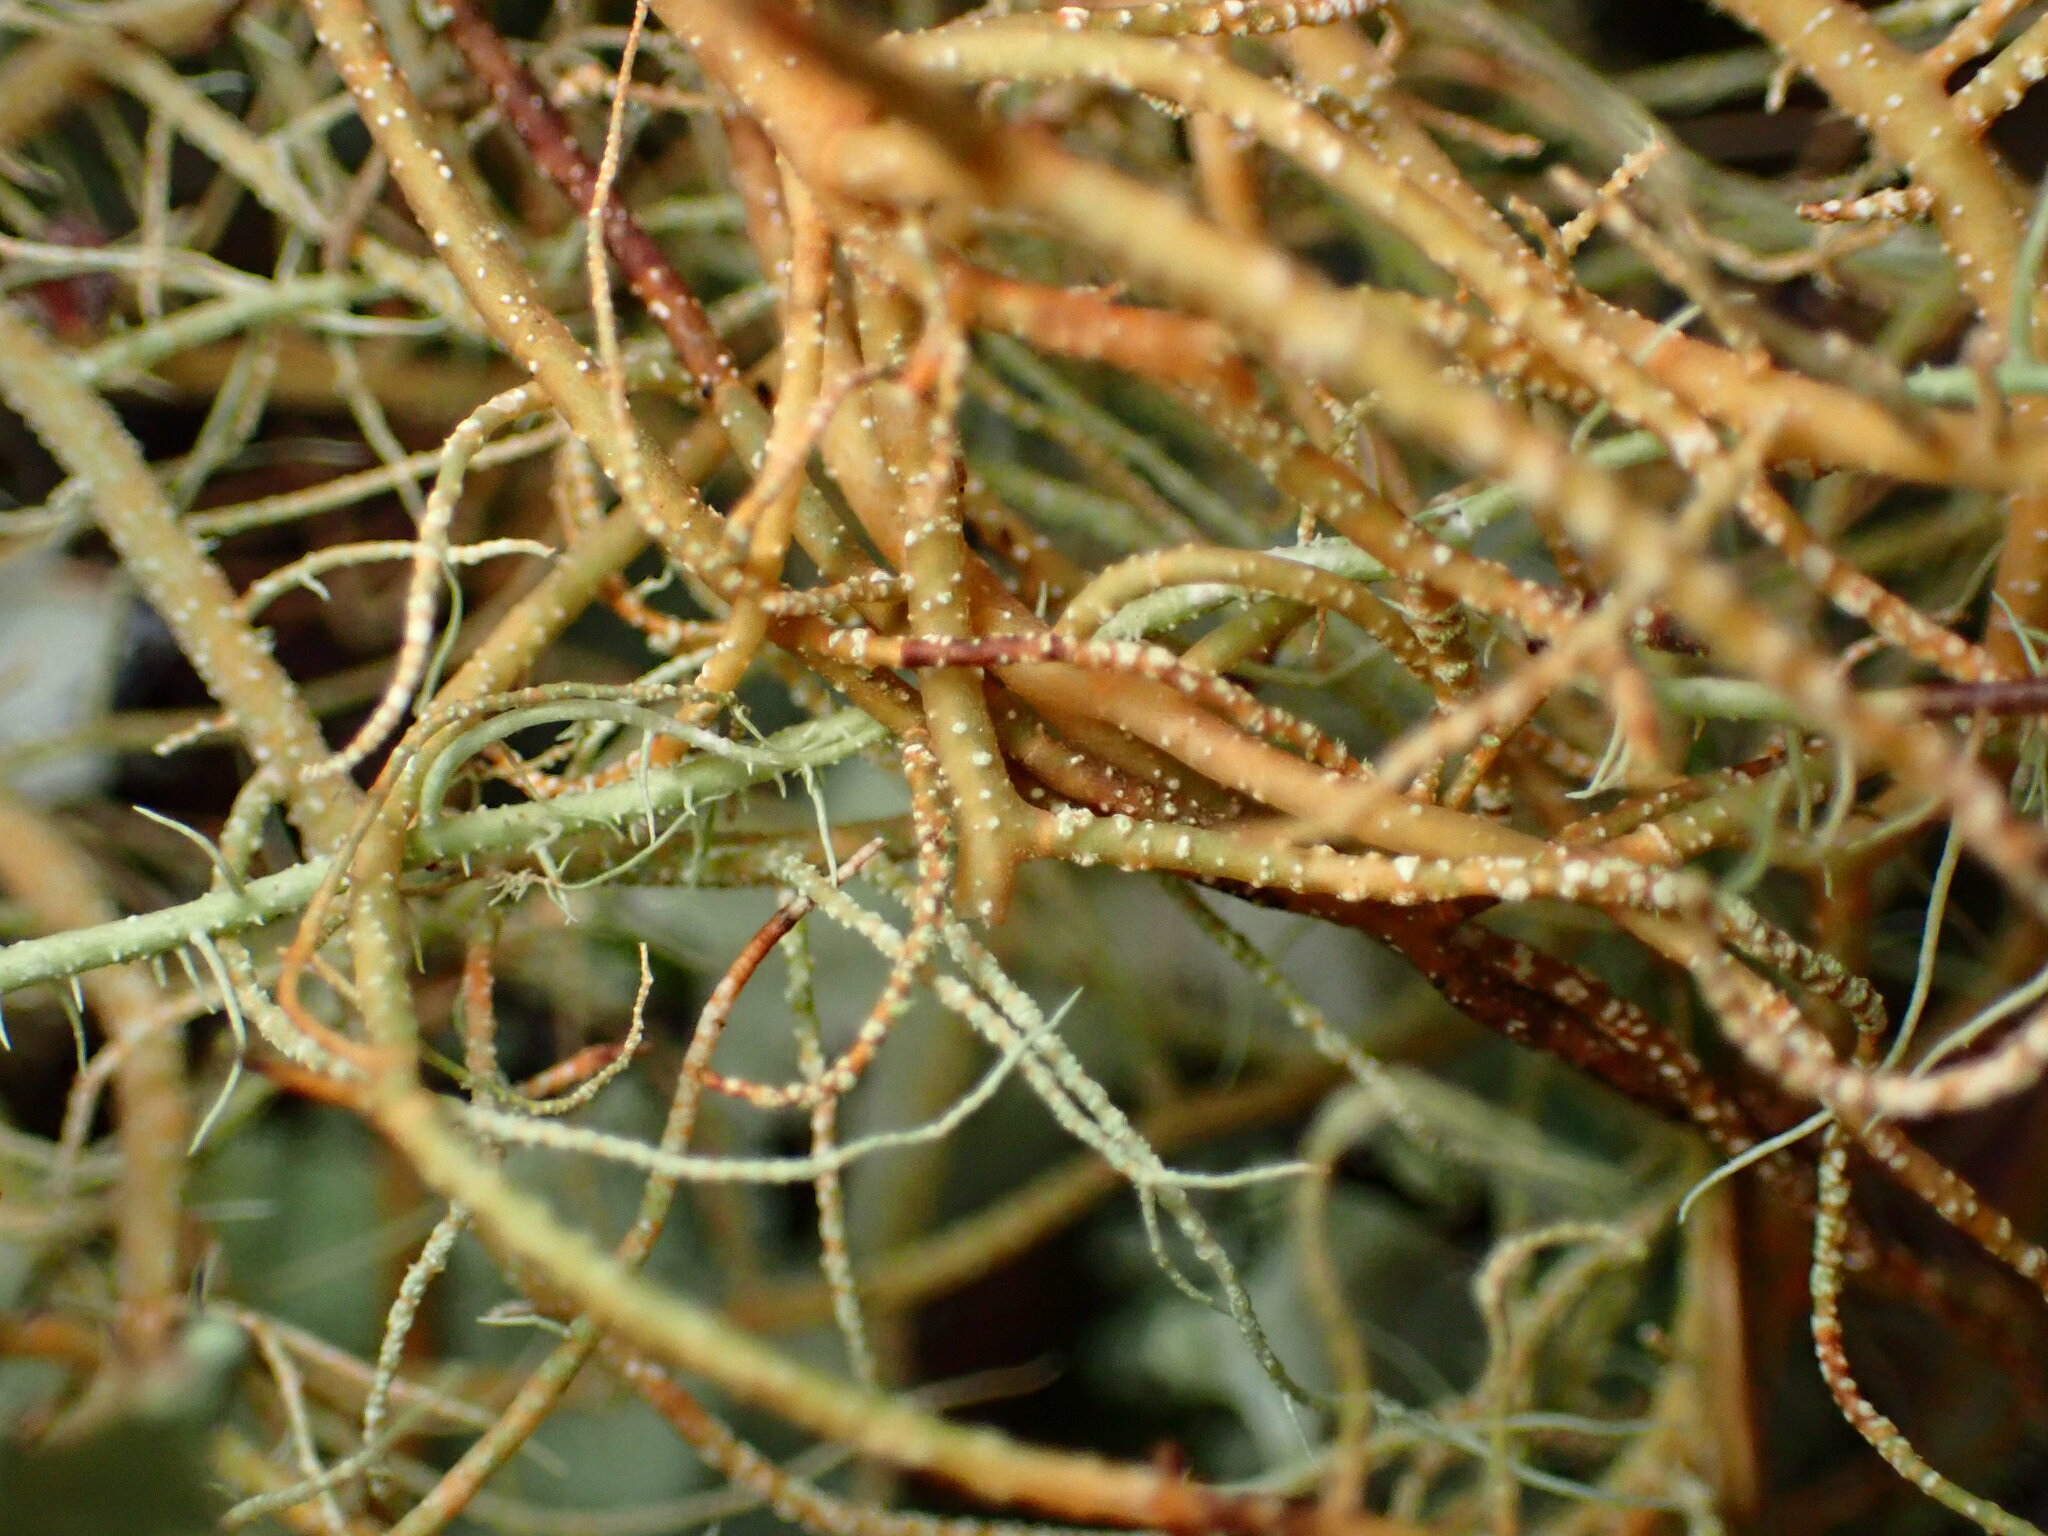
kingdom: Fungi
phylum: Ascomycota
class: Lecanoromycetes
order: Lecanorales
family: Parmeliaceae
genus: Usnea
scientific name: Usnea rubicunda
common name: Red beard lichen
